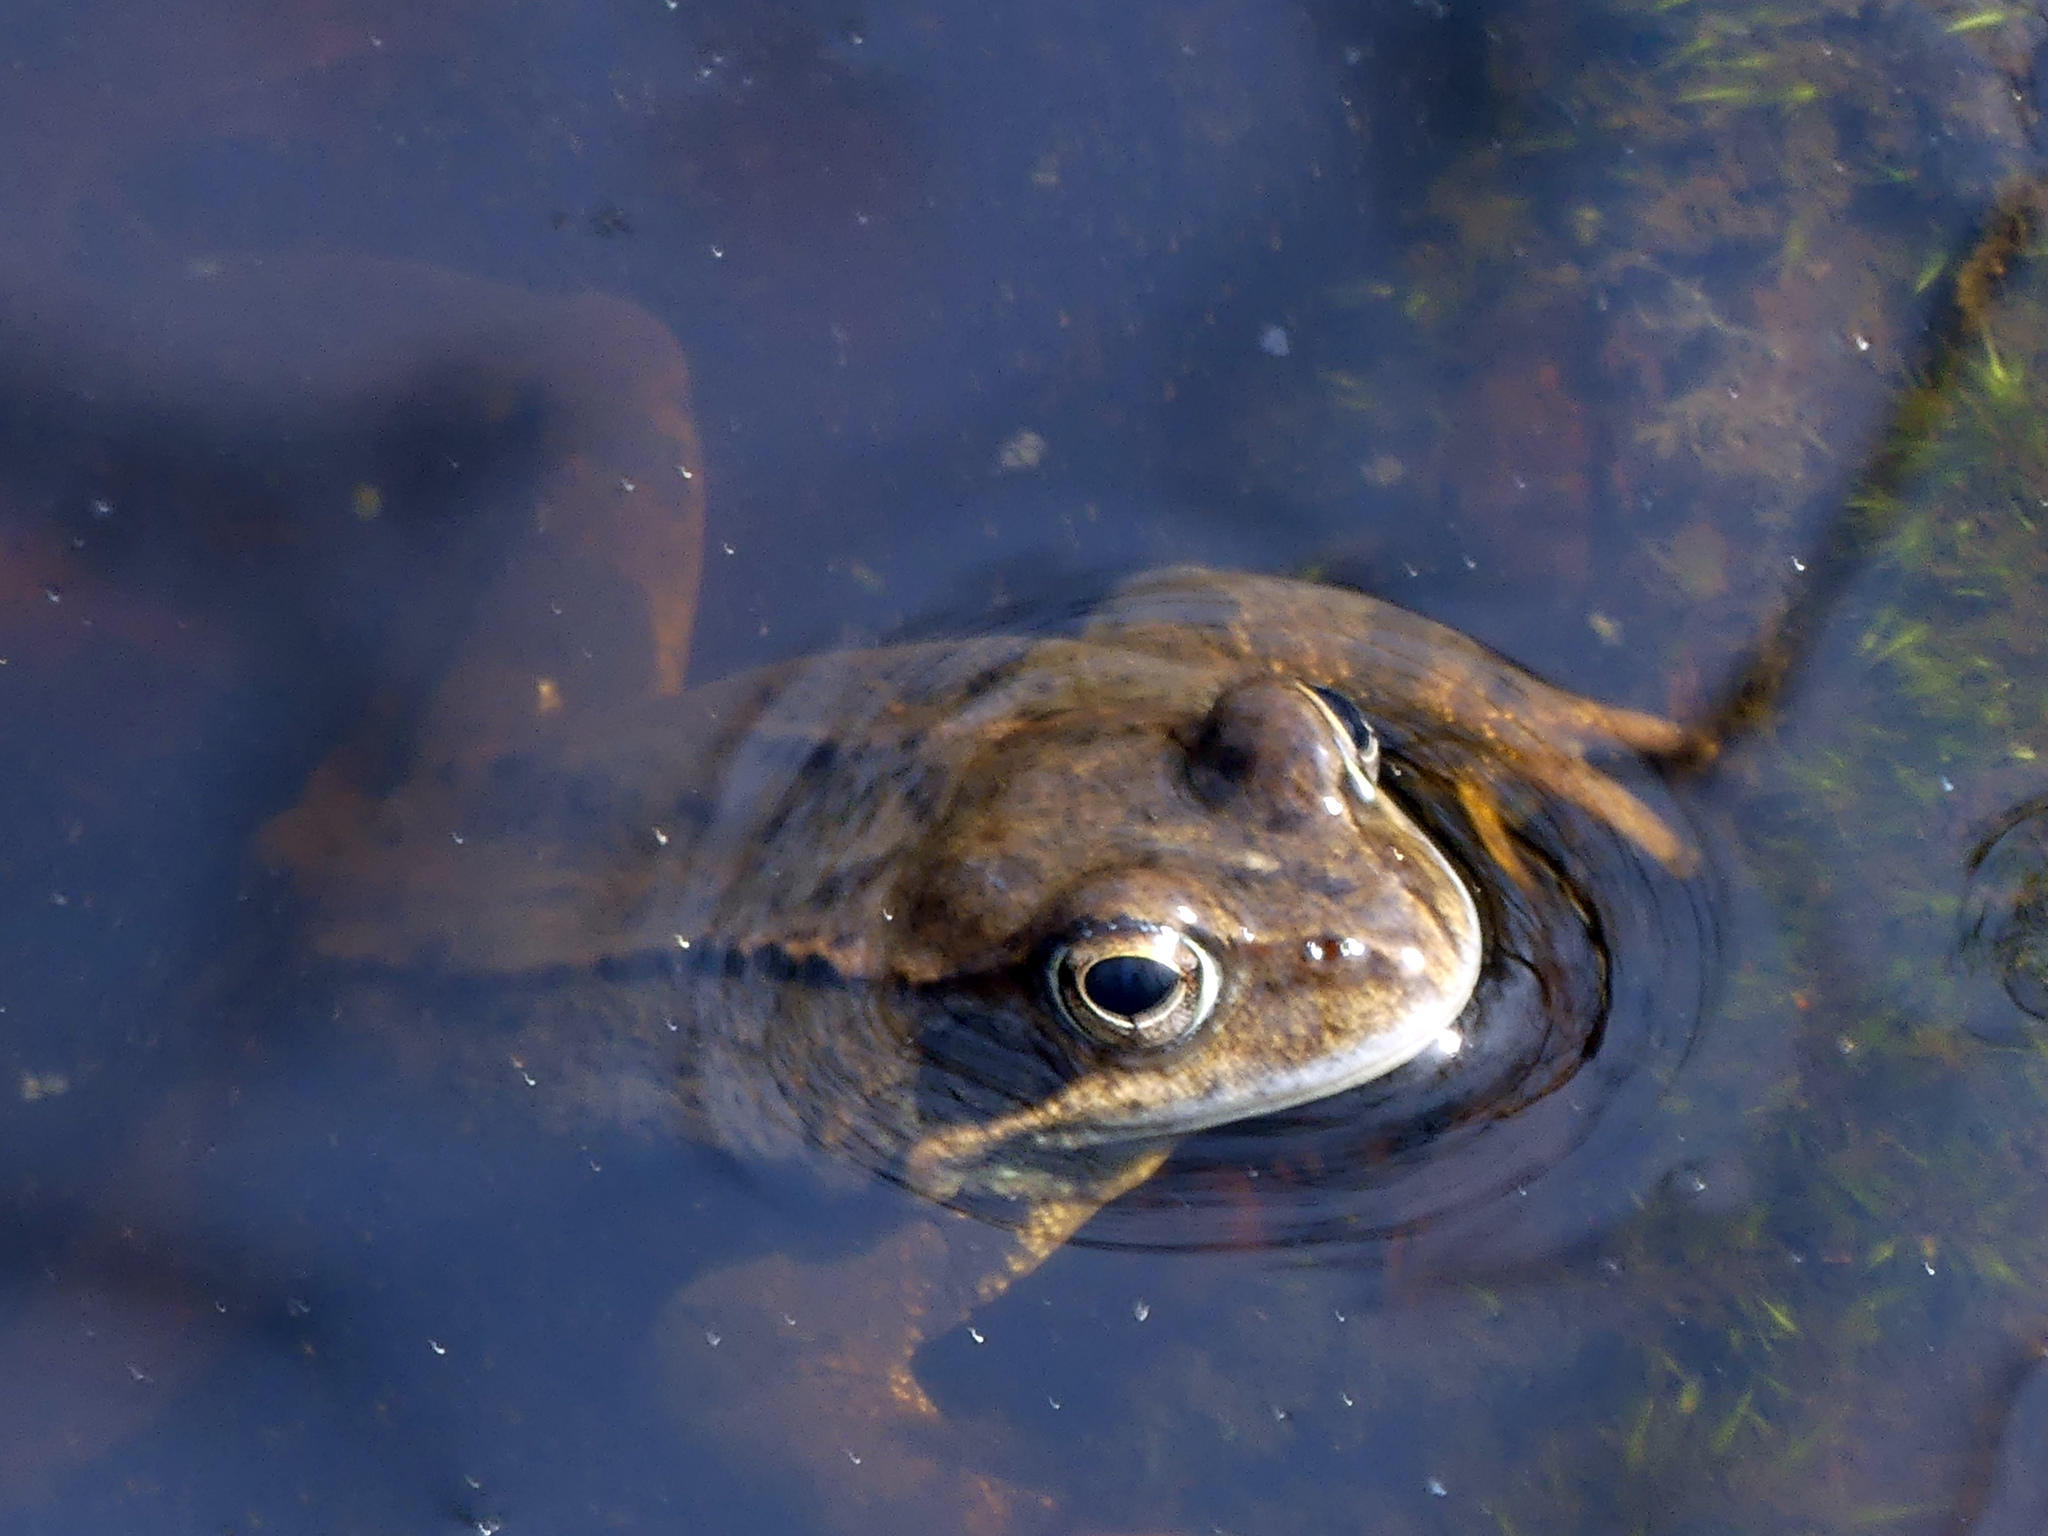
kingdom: Animalia
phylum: Chordata
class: Amphibia
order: Anura
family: Ranidae
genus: Rana
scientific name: Rana temporaria
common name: Common frog
